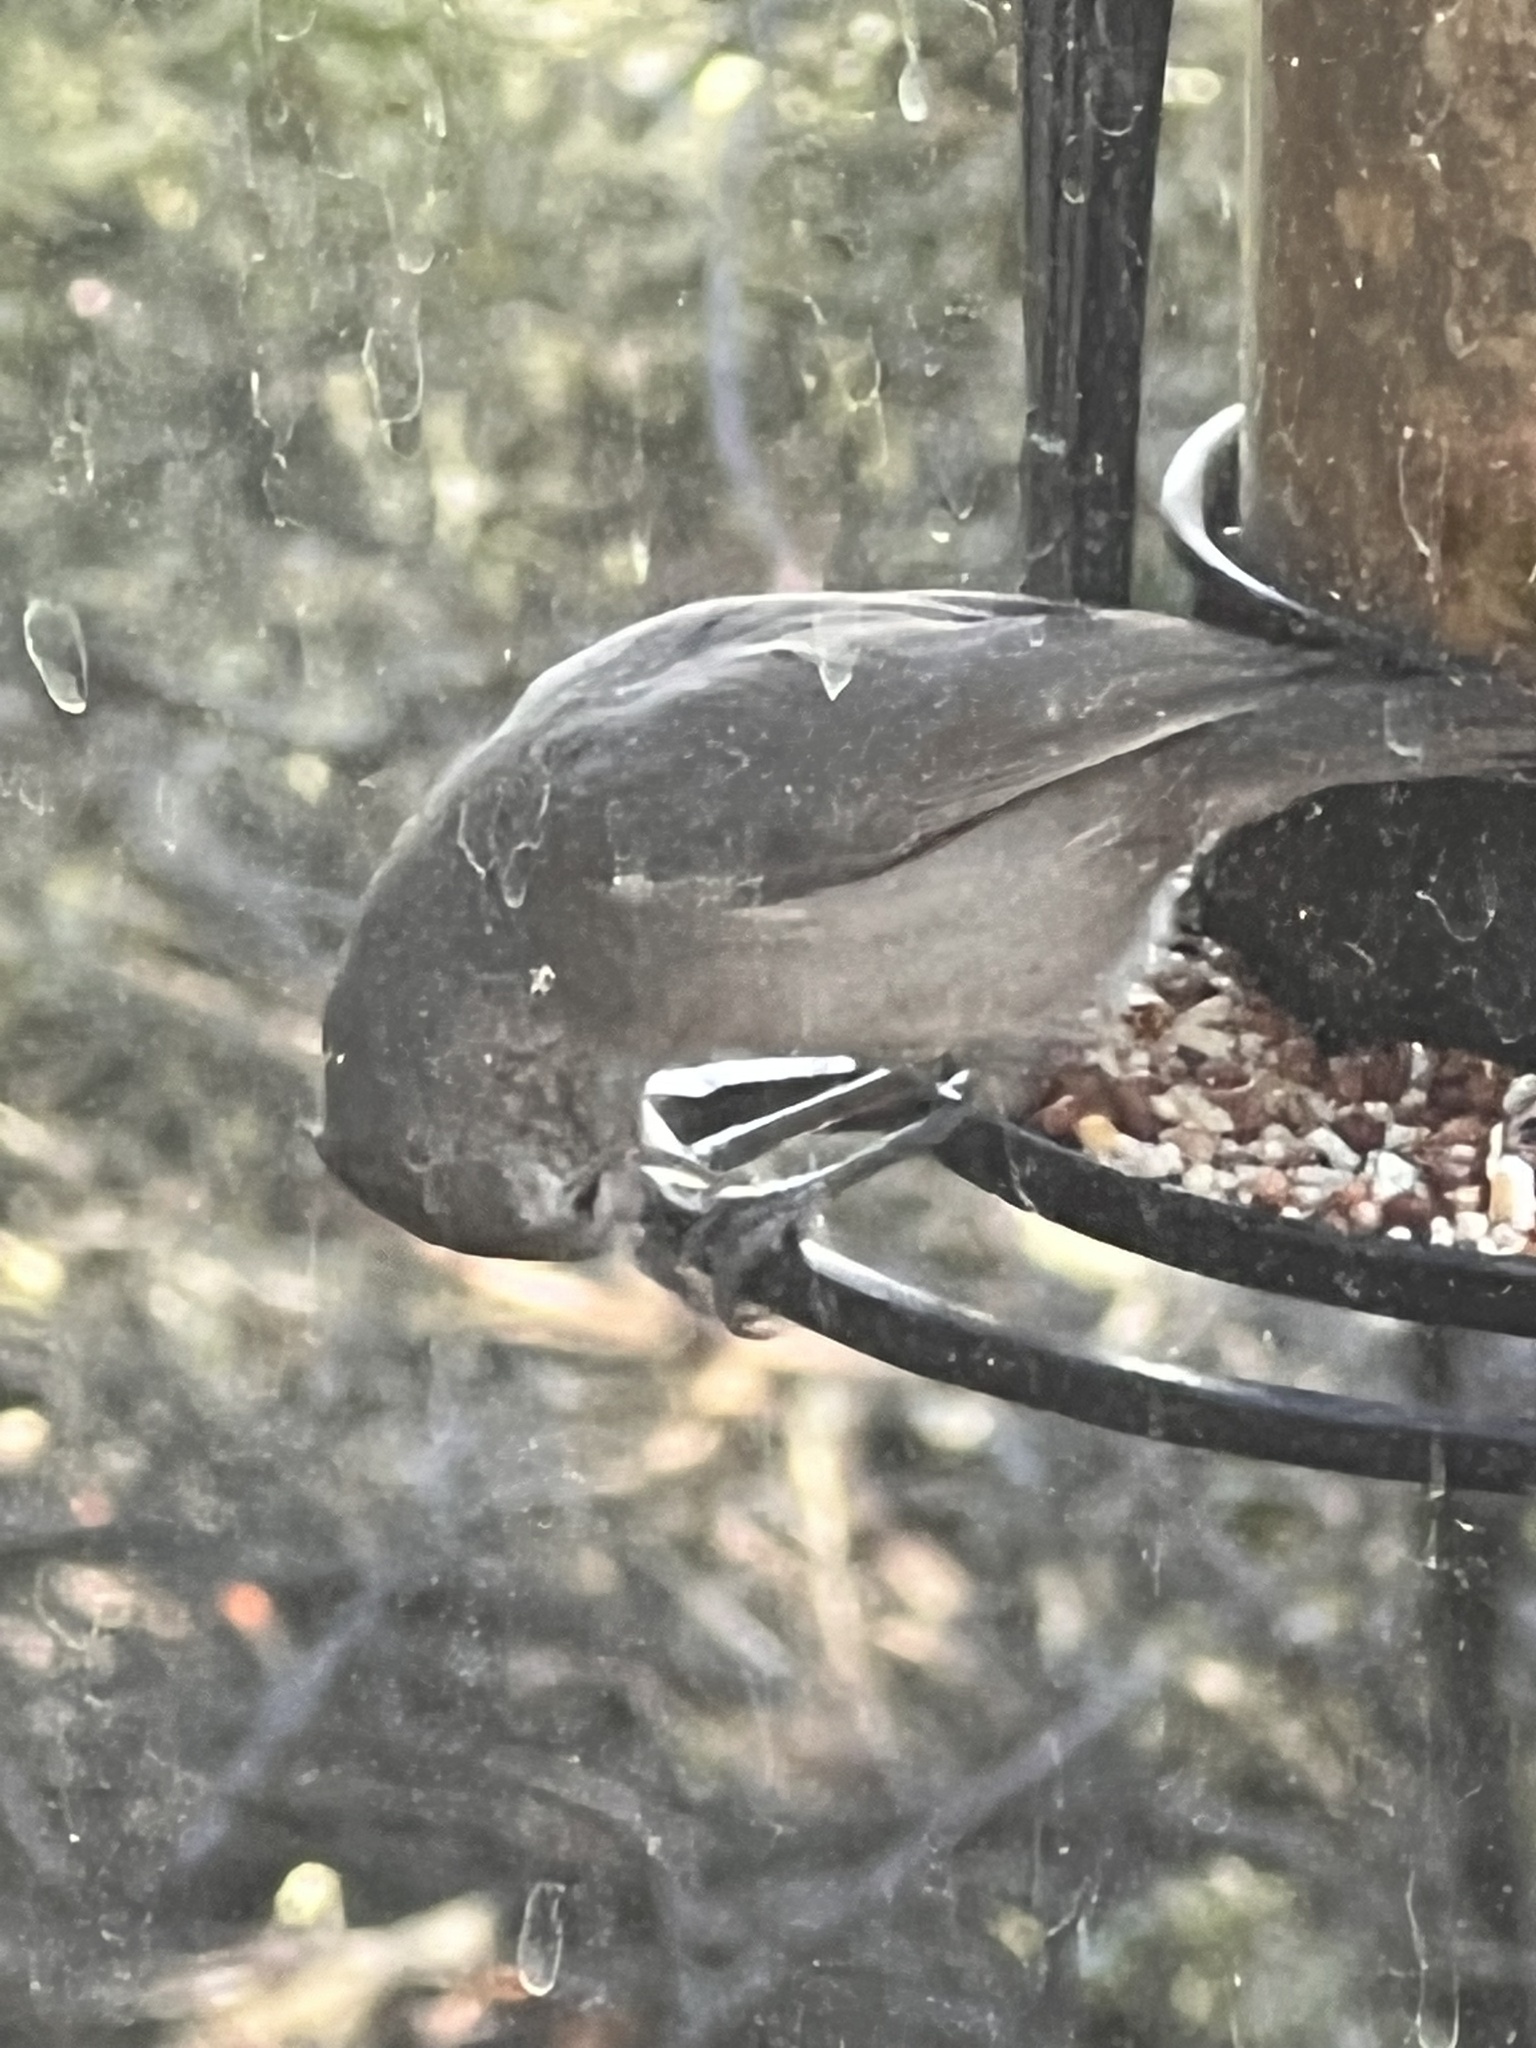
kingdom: Animalia
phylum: Chordata
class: Aves
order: Passeriformes
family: Paridae
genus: Baeolophus
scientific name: Baeolophus inornatus
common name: Oak titmouse
